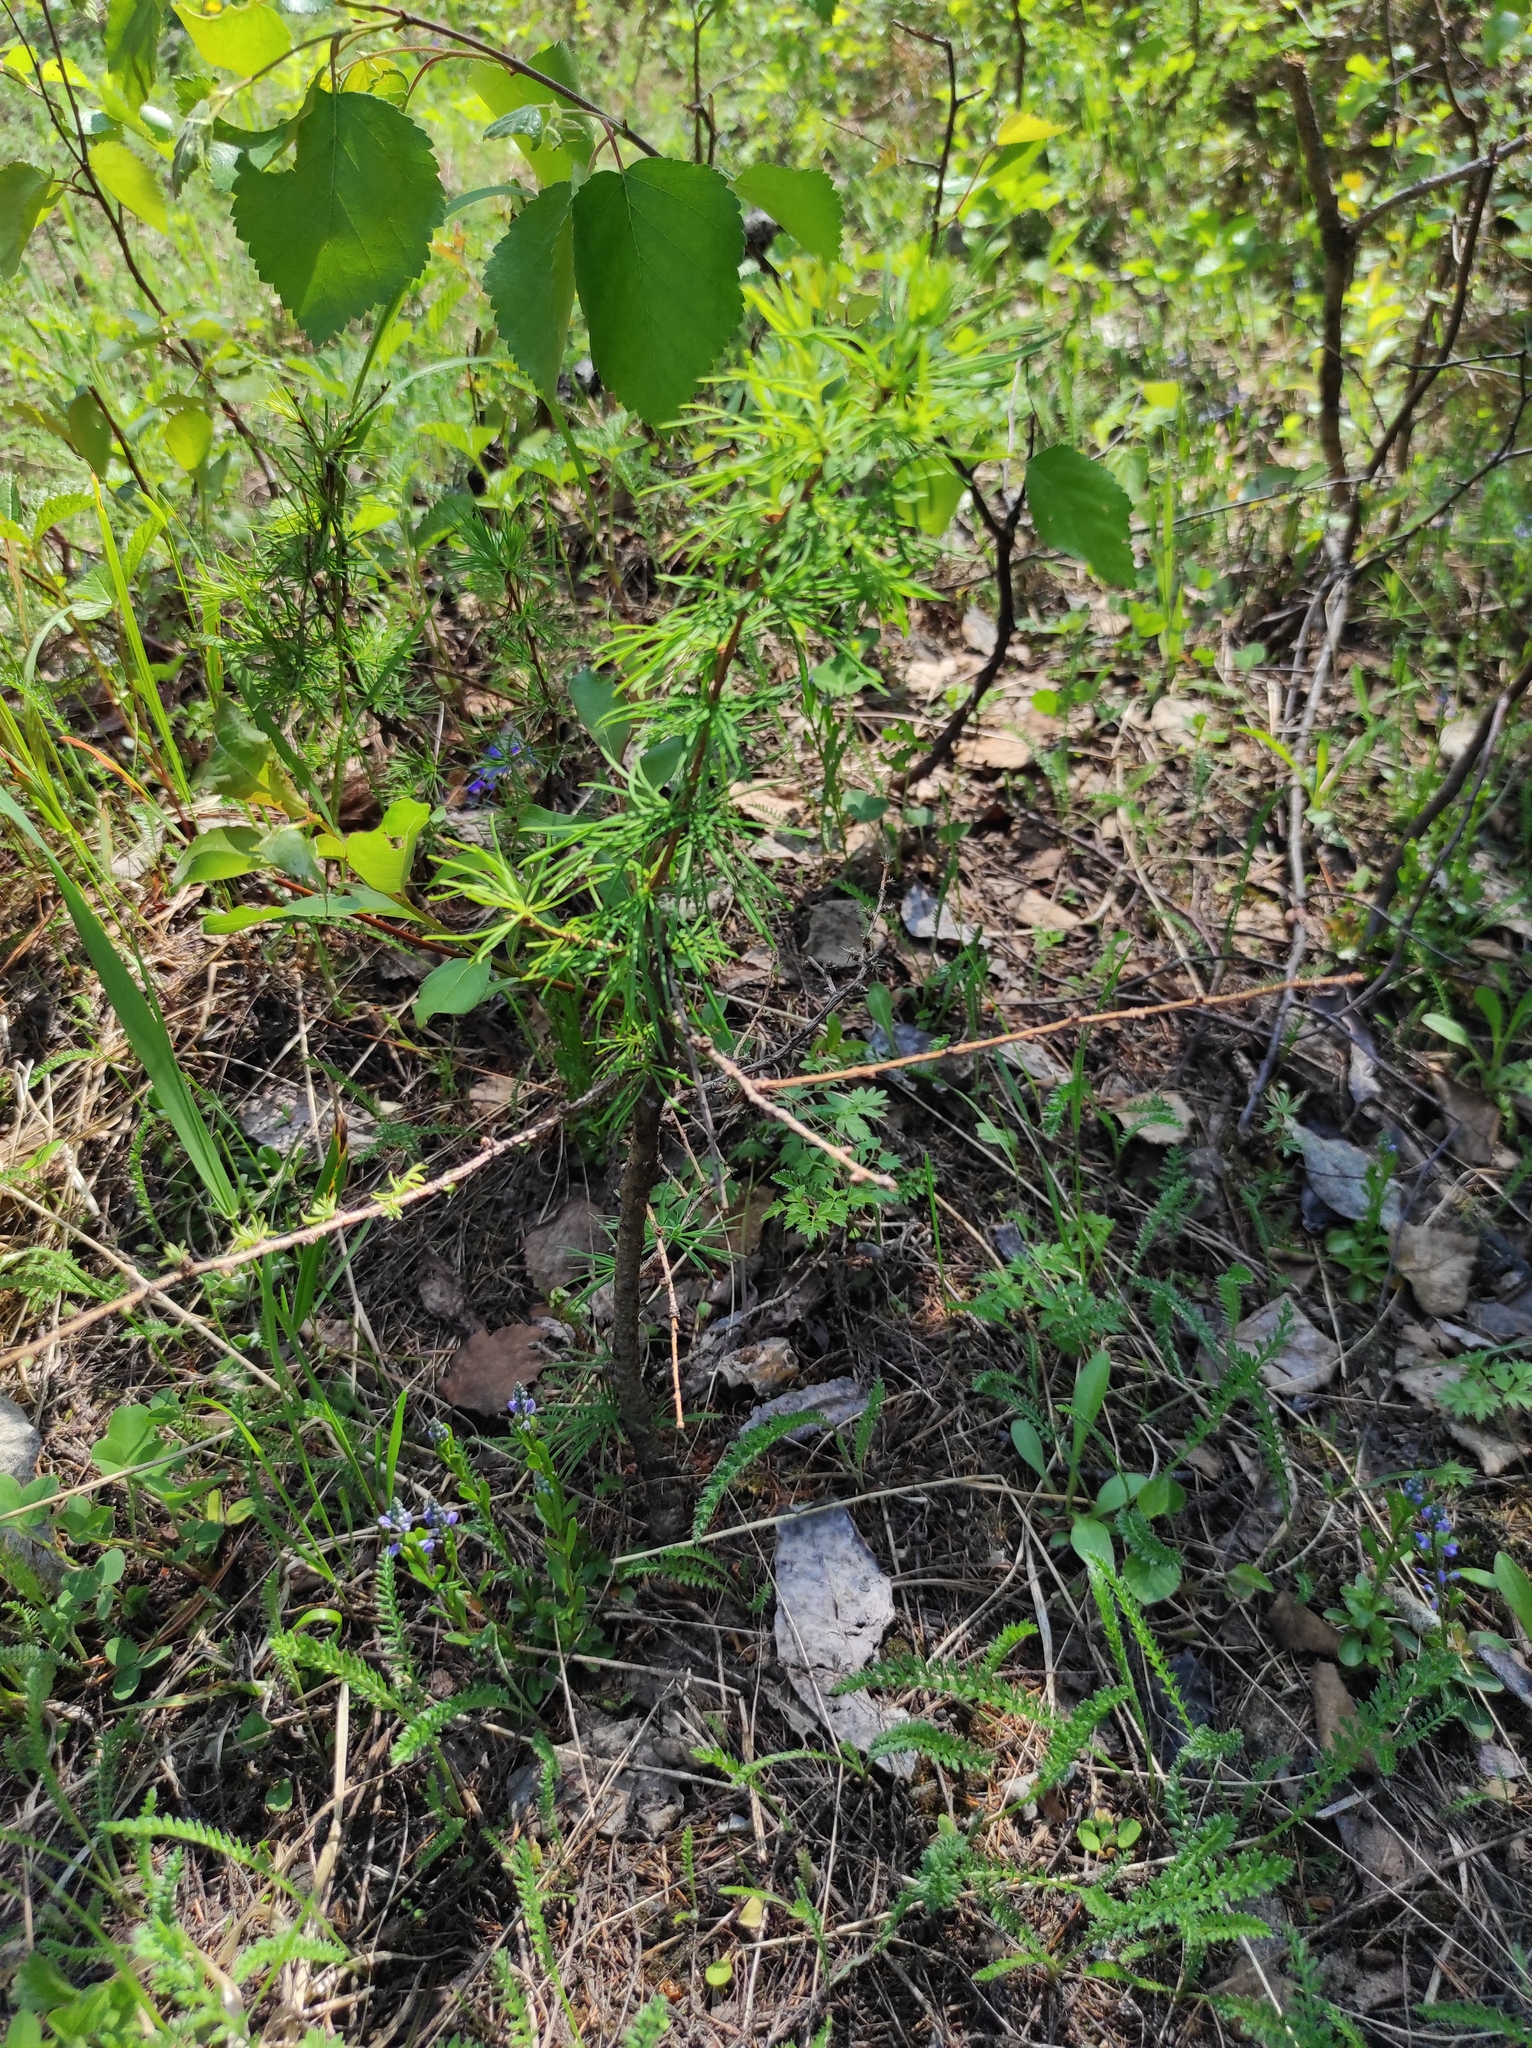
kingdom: Plantae
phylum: Tracheophyta
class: Pinopsida
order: Pinales
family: Pinaceae
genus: Larix
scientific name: Larix gmelinii
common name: Dahurian larch
